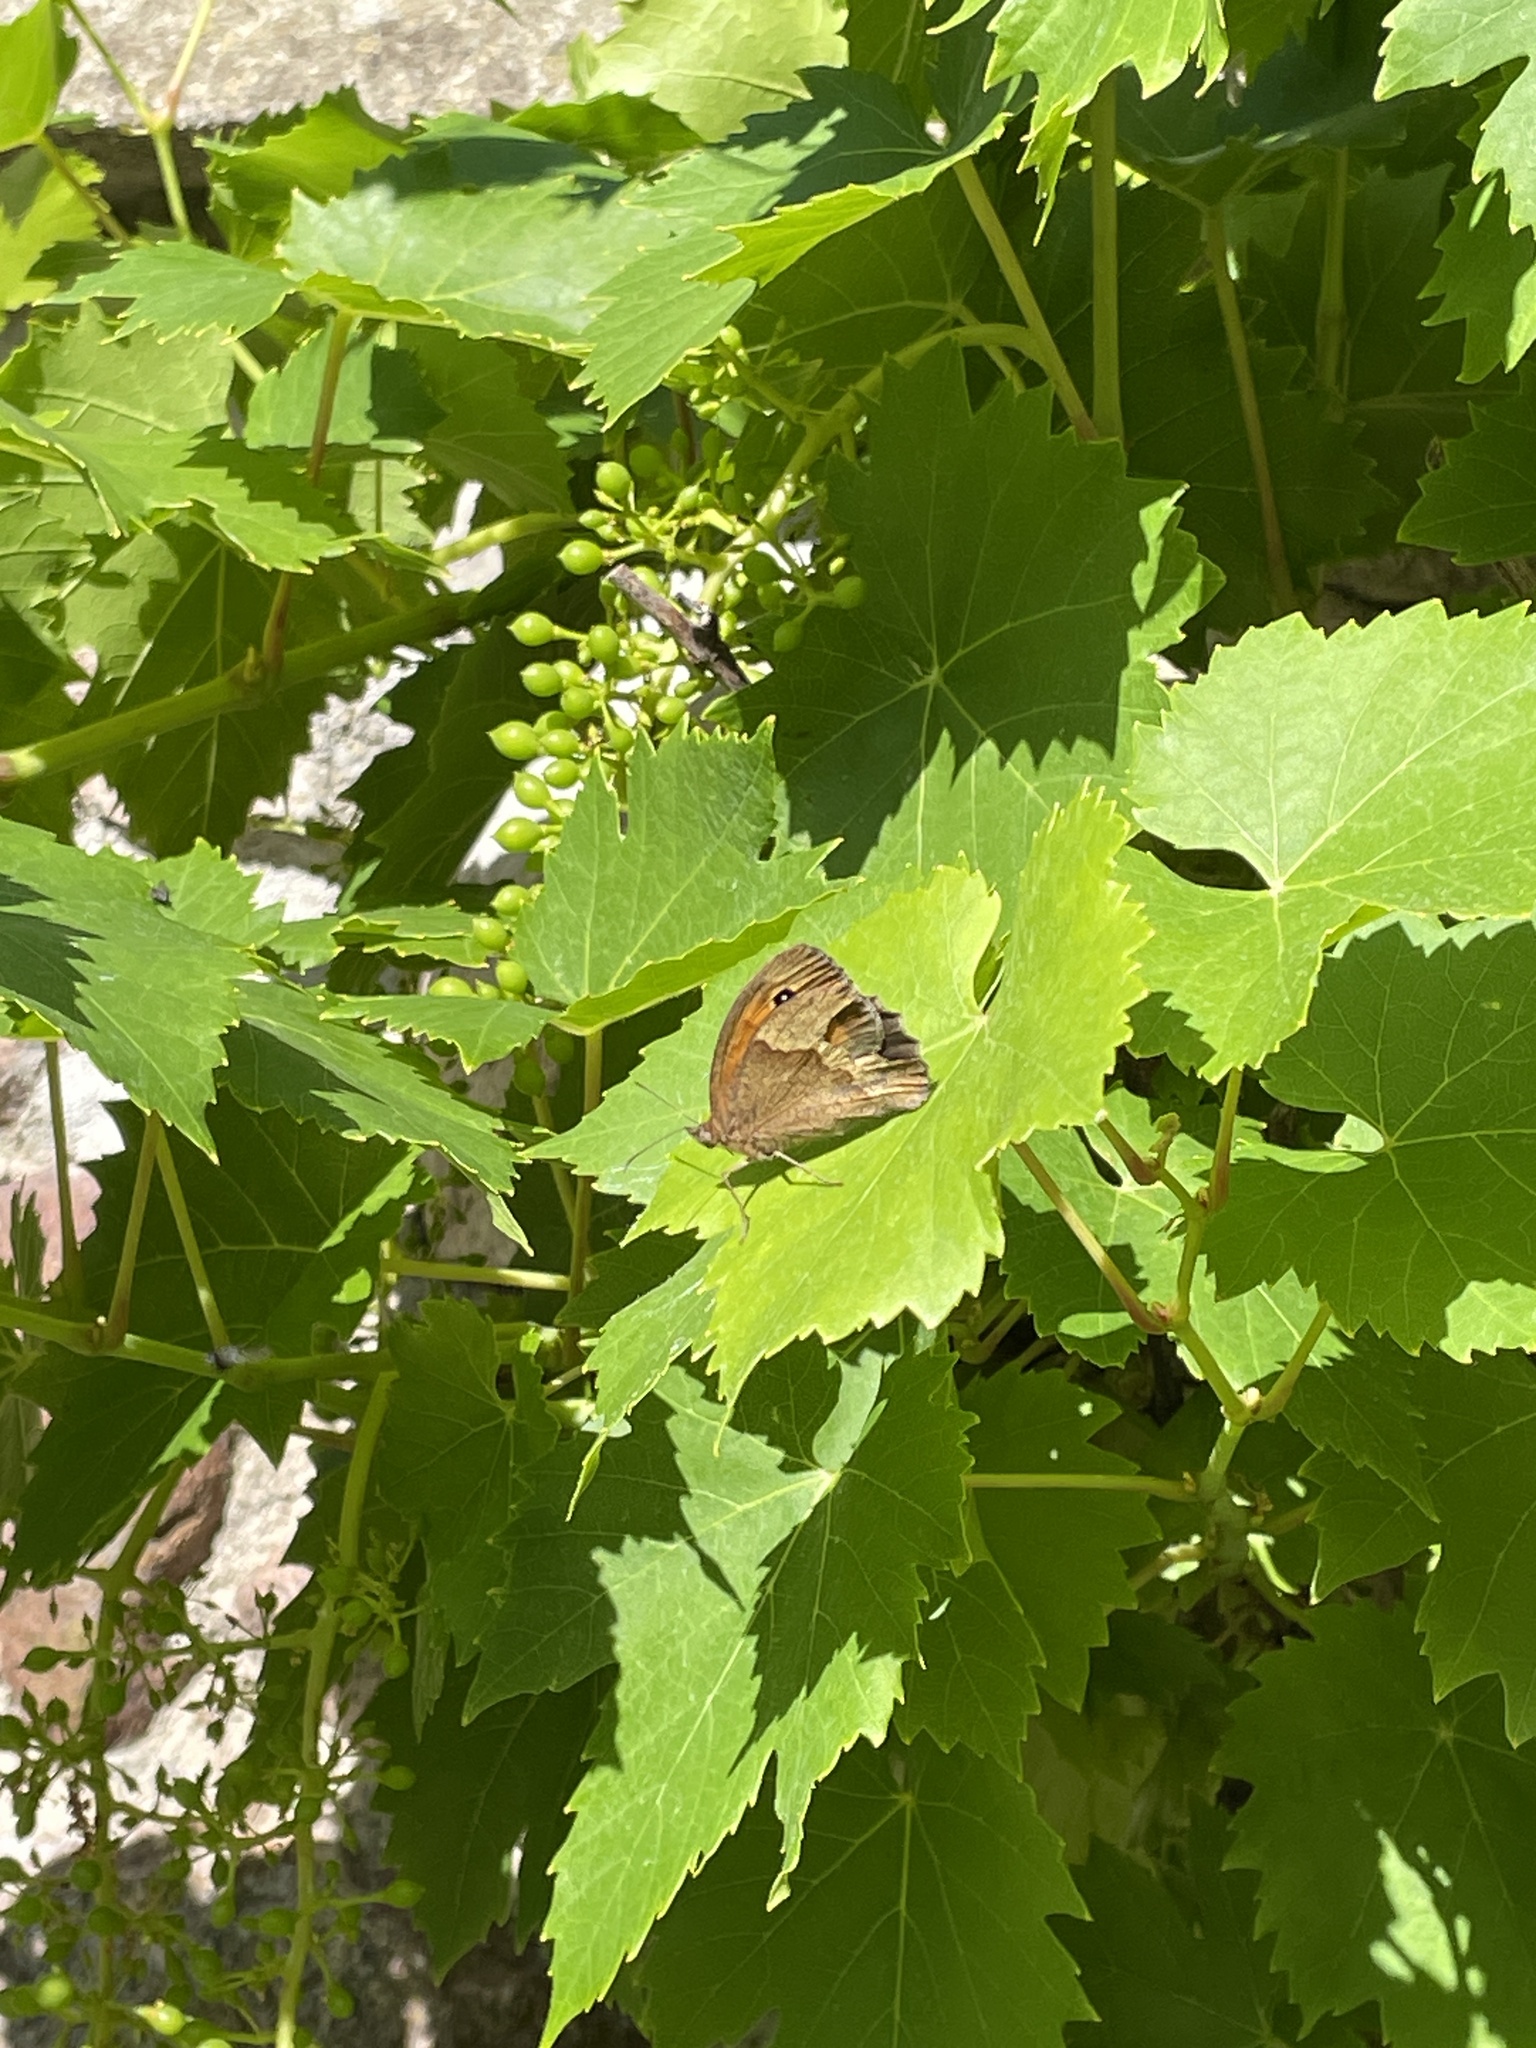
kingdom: Animalia
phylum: Arthropoda
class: Insecta
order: Lepidoptera
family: Nymphalidae
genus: Maniola
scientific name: Maniola jurtina
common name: Meadow brown
